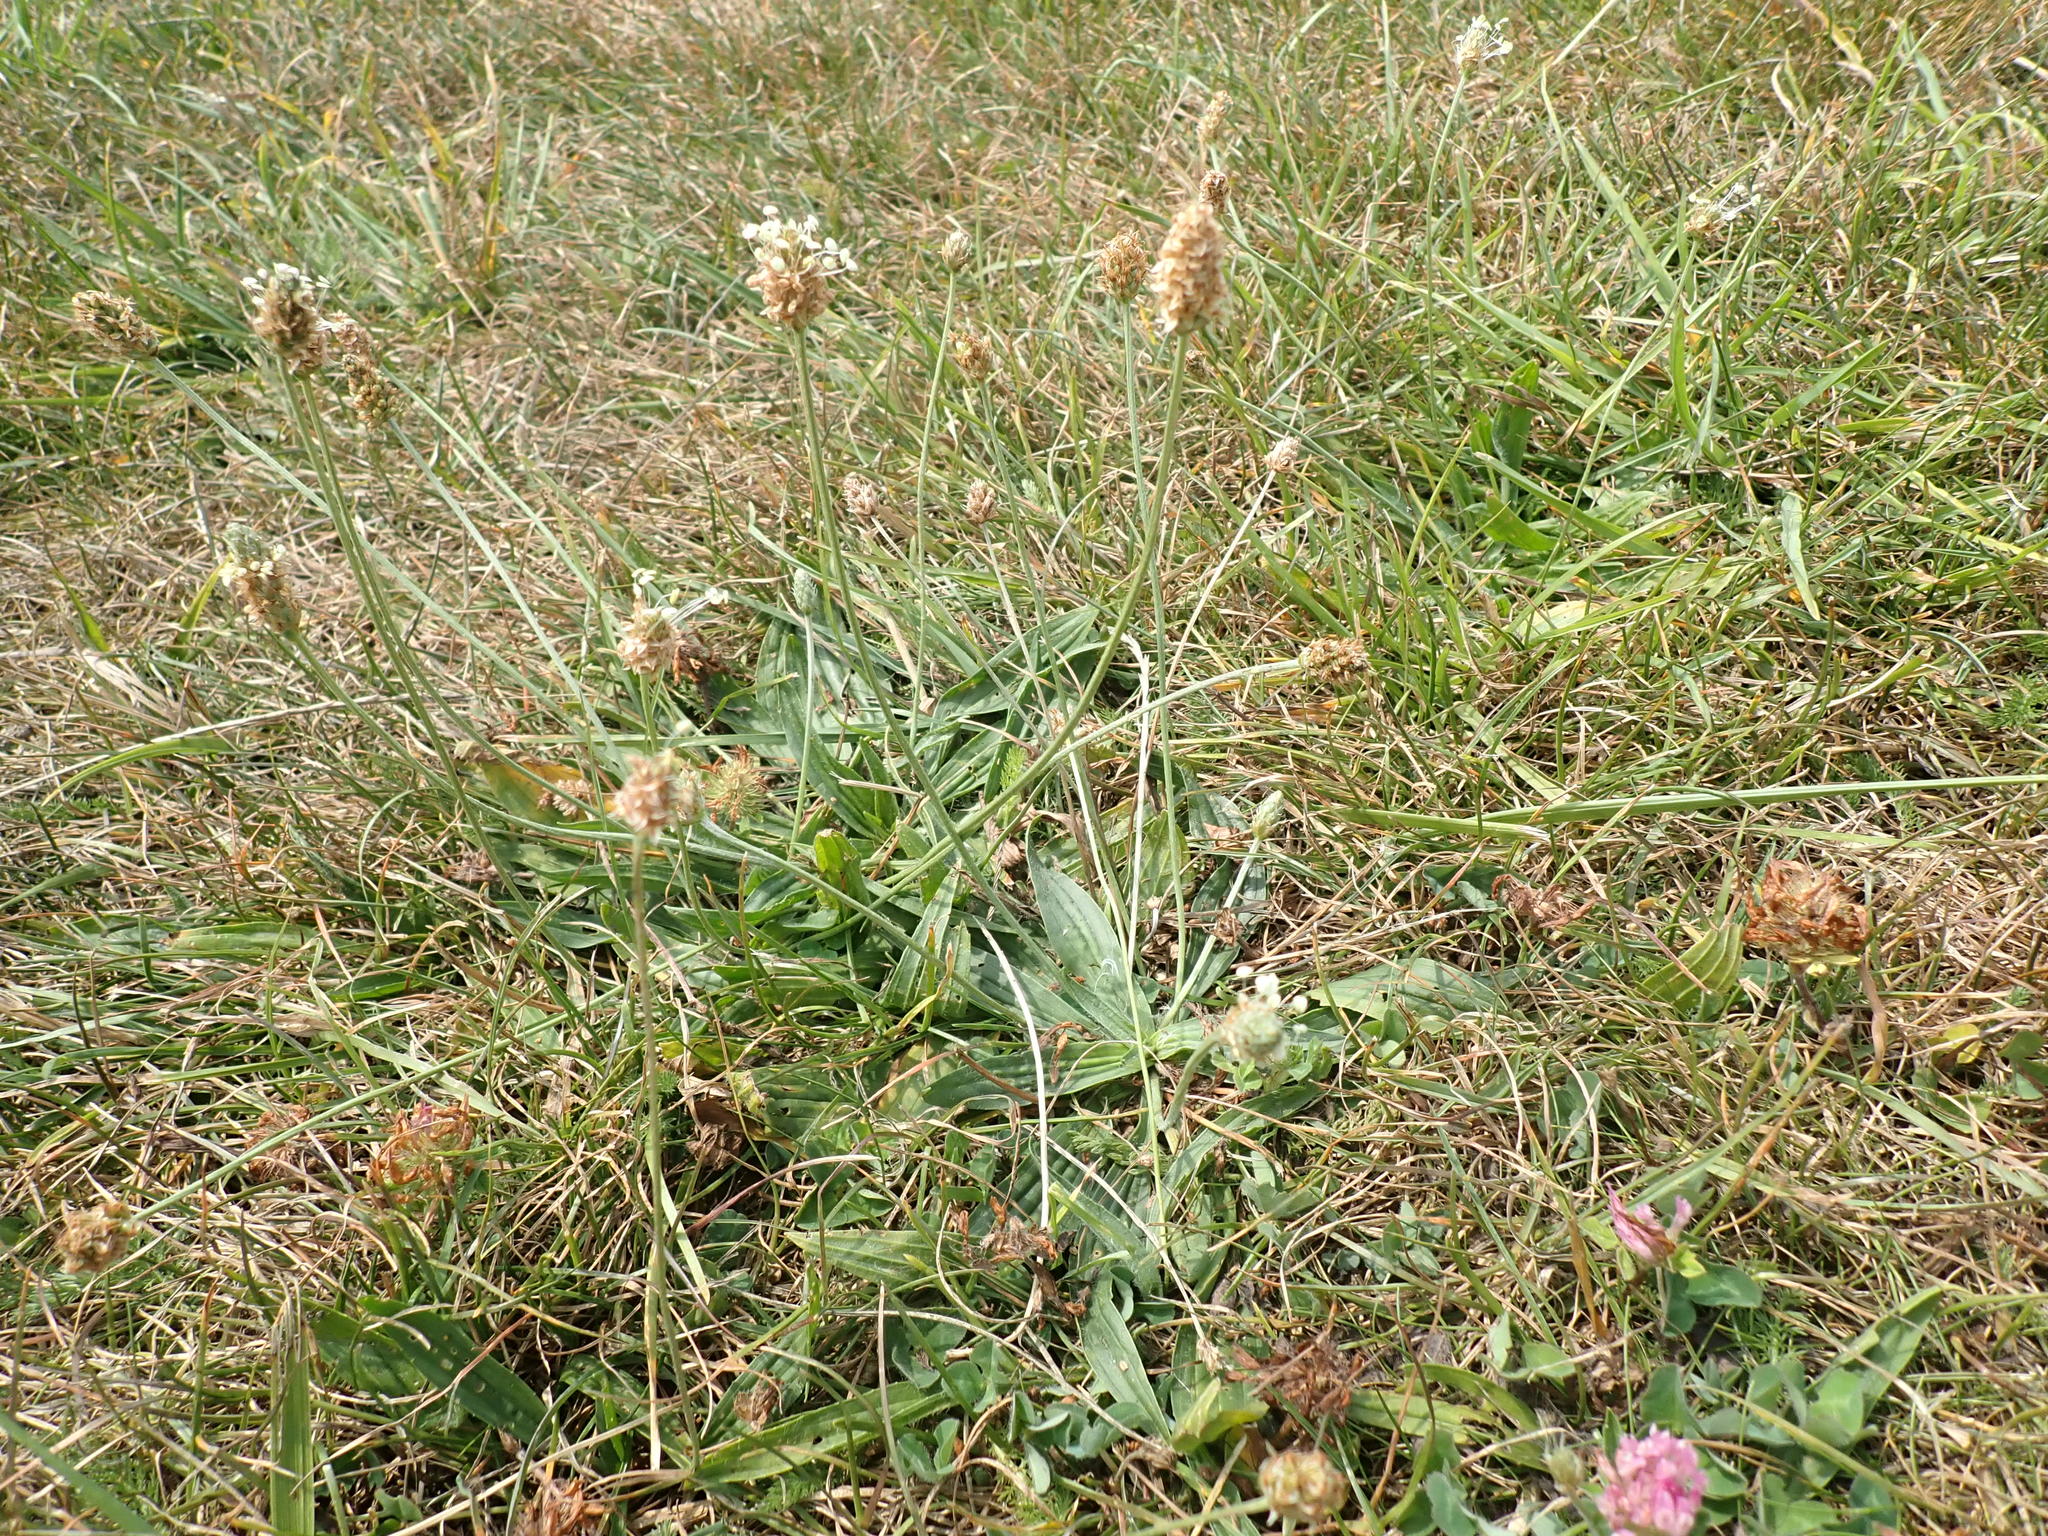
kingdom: Plantae
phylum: Tracheophyta
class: Magnoliopsida
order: Lamiales
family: Plantaginaceae
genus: Plantago
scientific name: Plantago lanceolata
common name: Ribwort plantain
